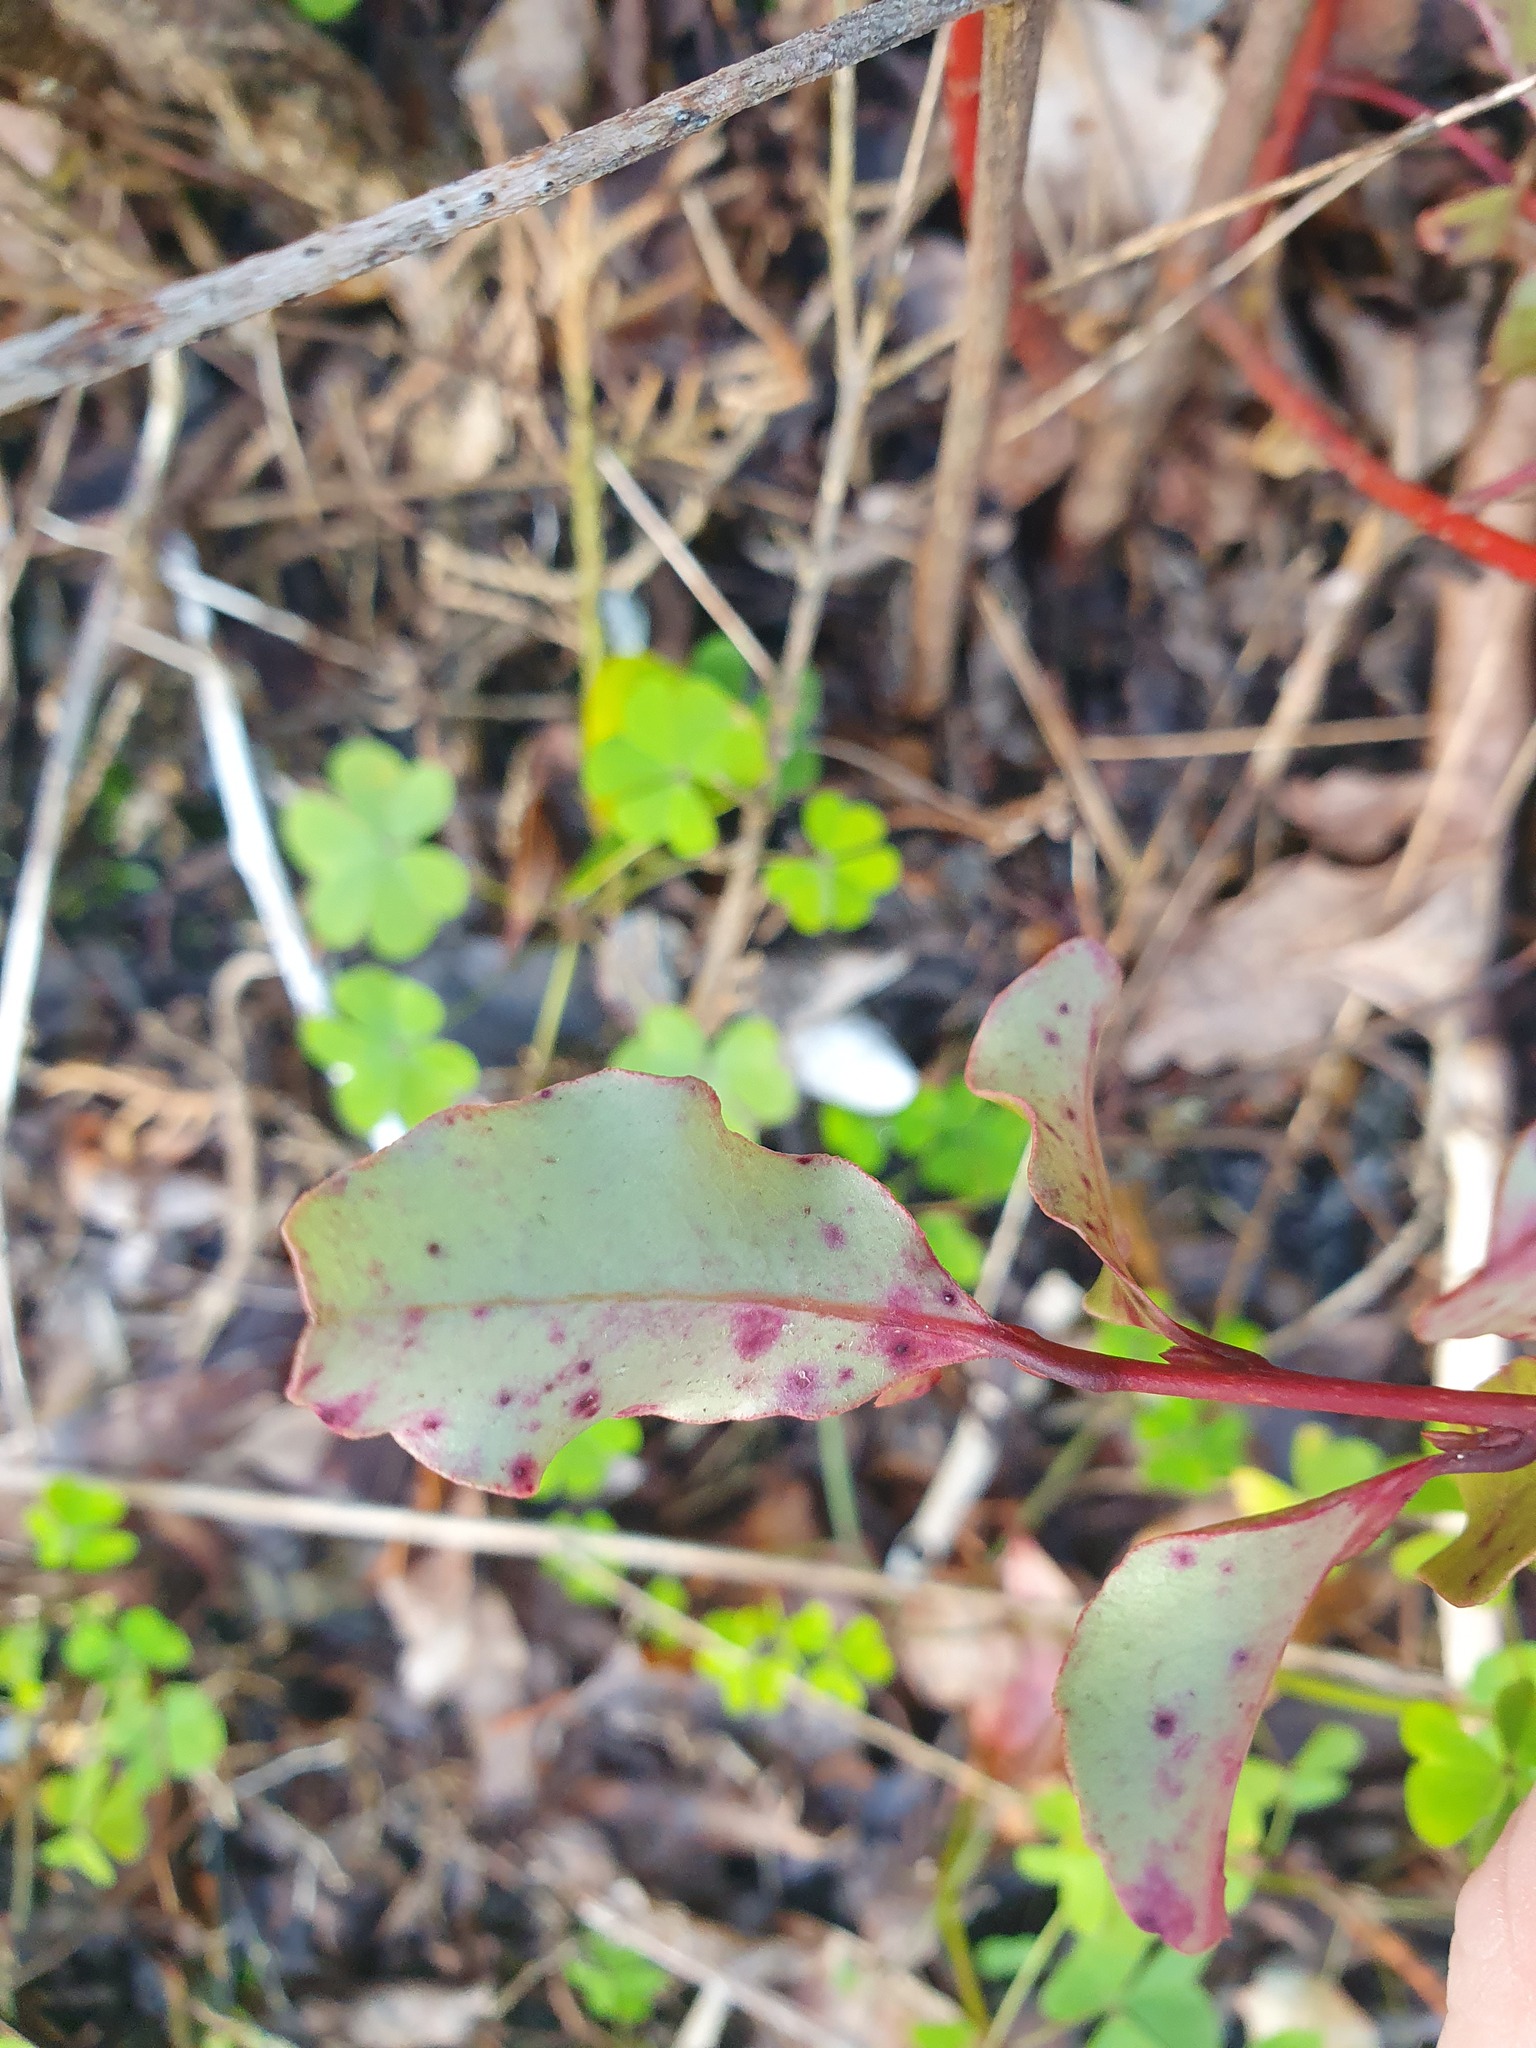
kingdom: Plantae
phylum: Tracheophyta
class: Magnoliopsida
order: Ericales
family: Primulaceae
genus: Myrsine
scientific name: Myrsine australis
